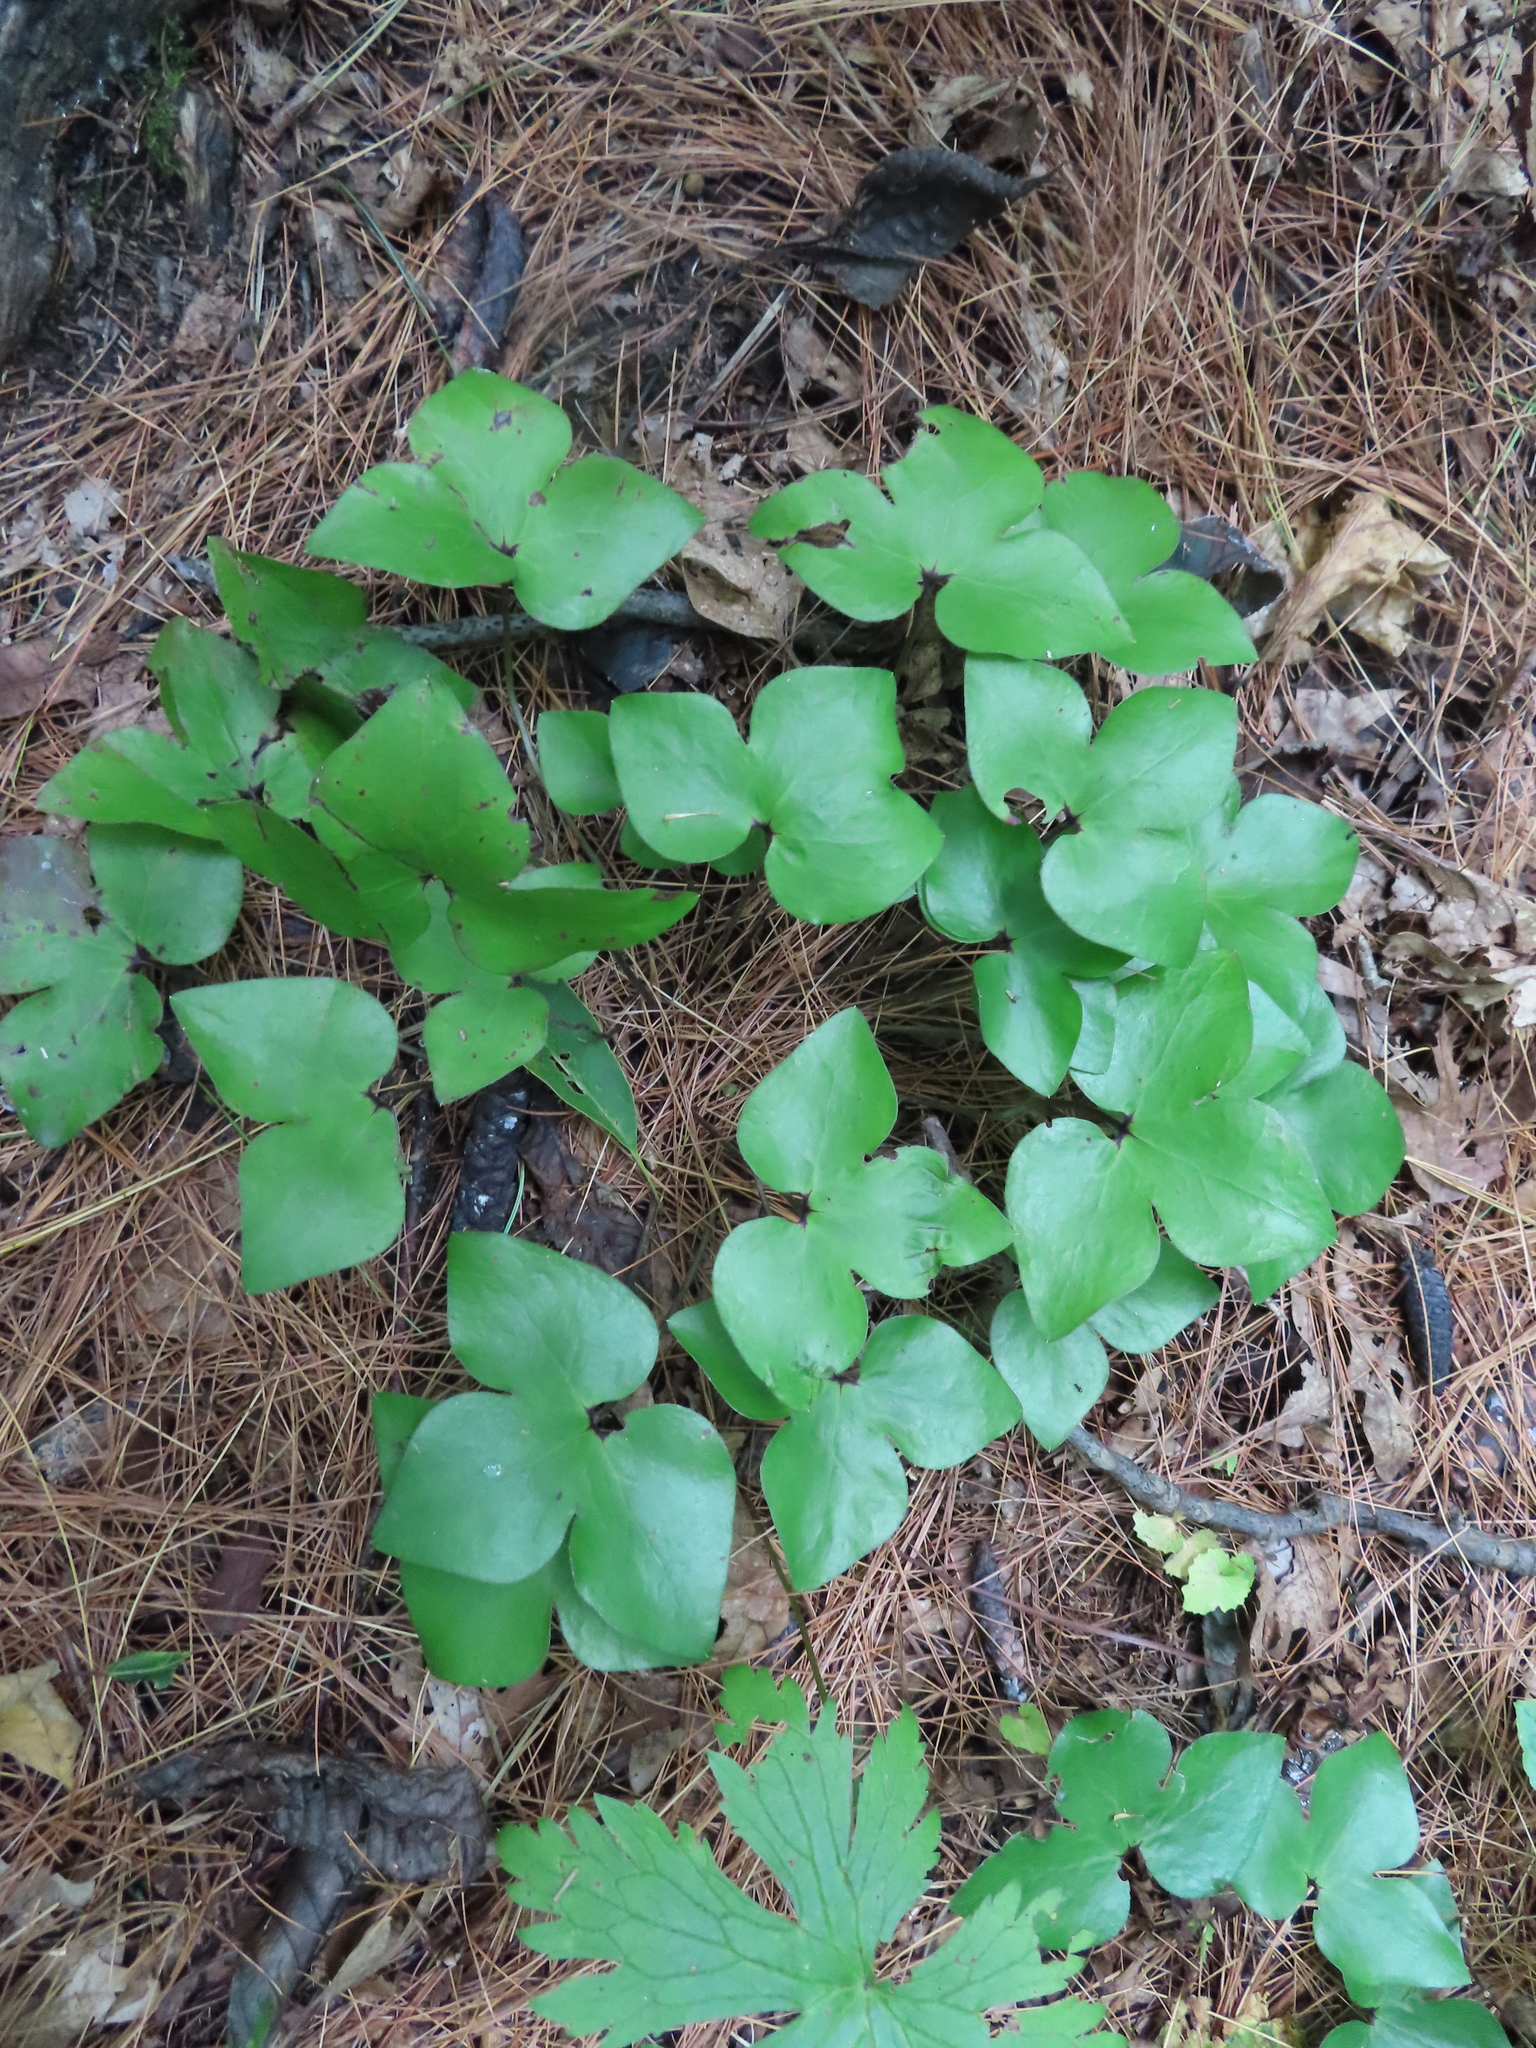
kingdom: Plantae
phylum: Tracheophyta
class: Magnoliopsida
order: Ranunculales
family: Ranunculaceae
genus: Hepatica
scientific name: Hepatica acutiloba
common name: Sharp-lobed hepatica
